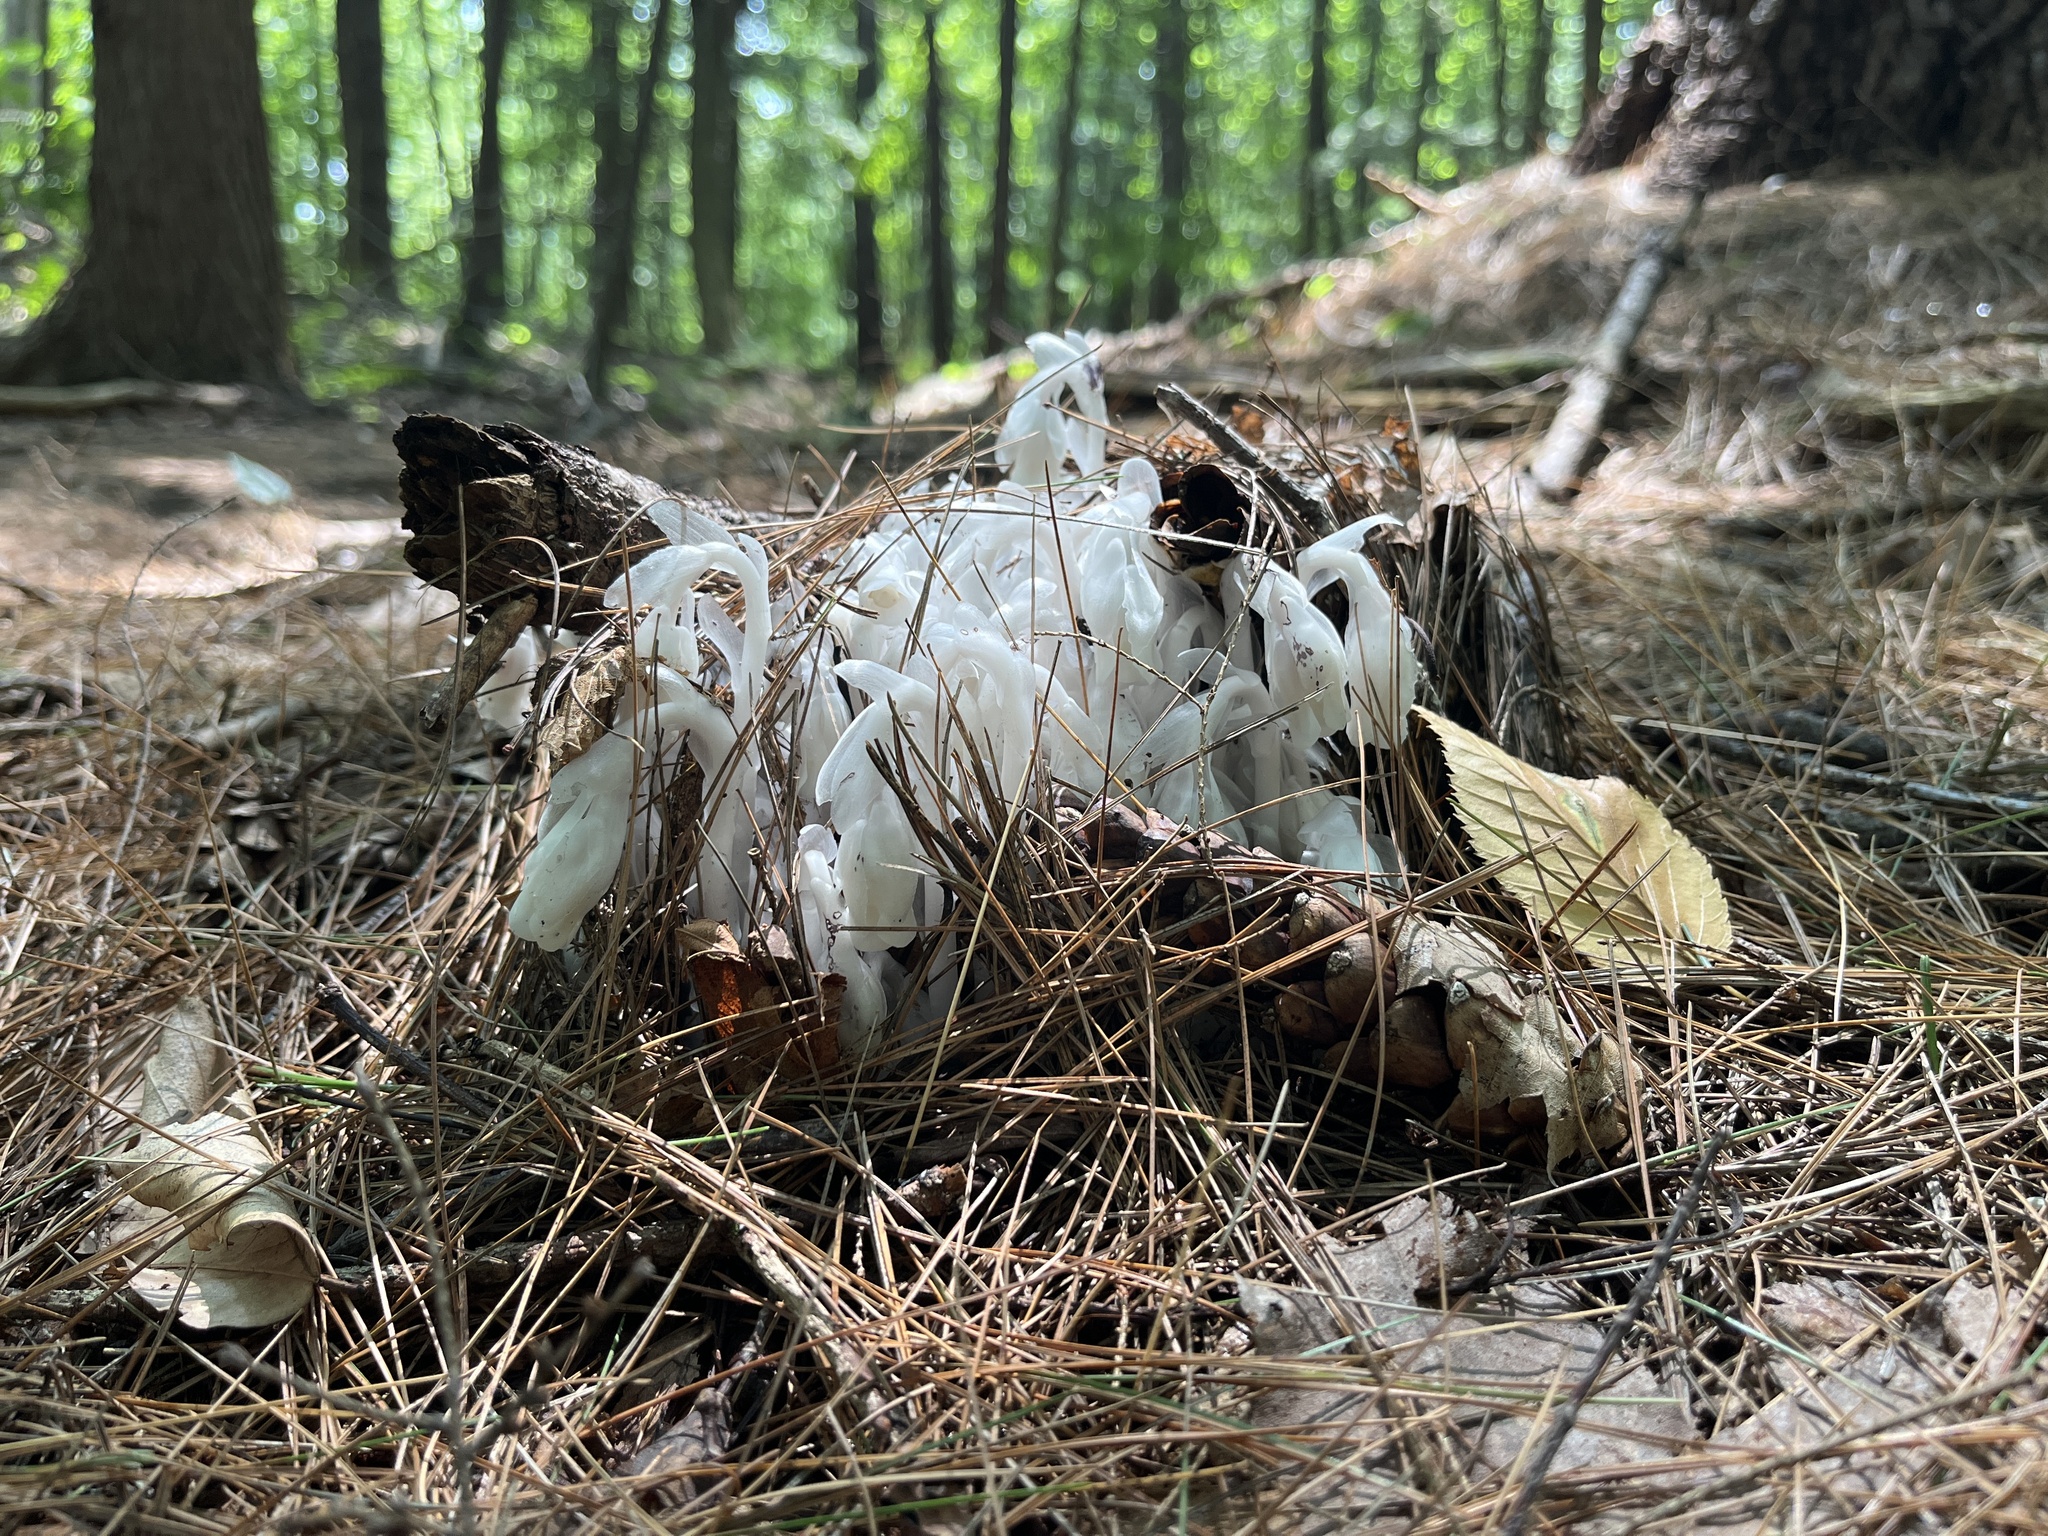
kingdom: Plantae
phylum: Tracheophyta
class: Magnoliopsida
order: Ericales
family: Ericaceae
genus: Monotropa
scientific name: Monotropa uniflora
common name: Convulsion root
